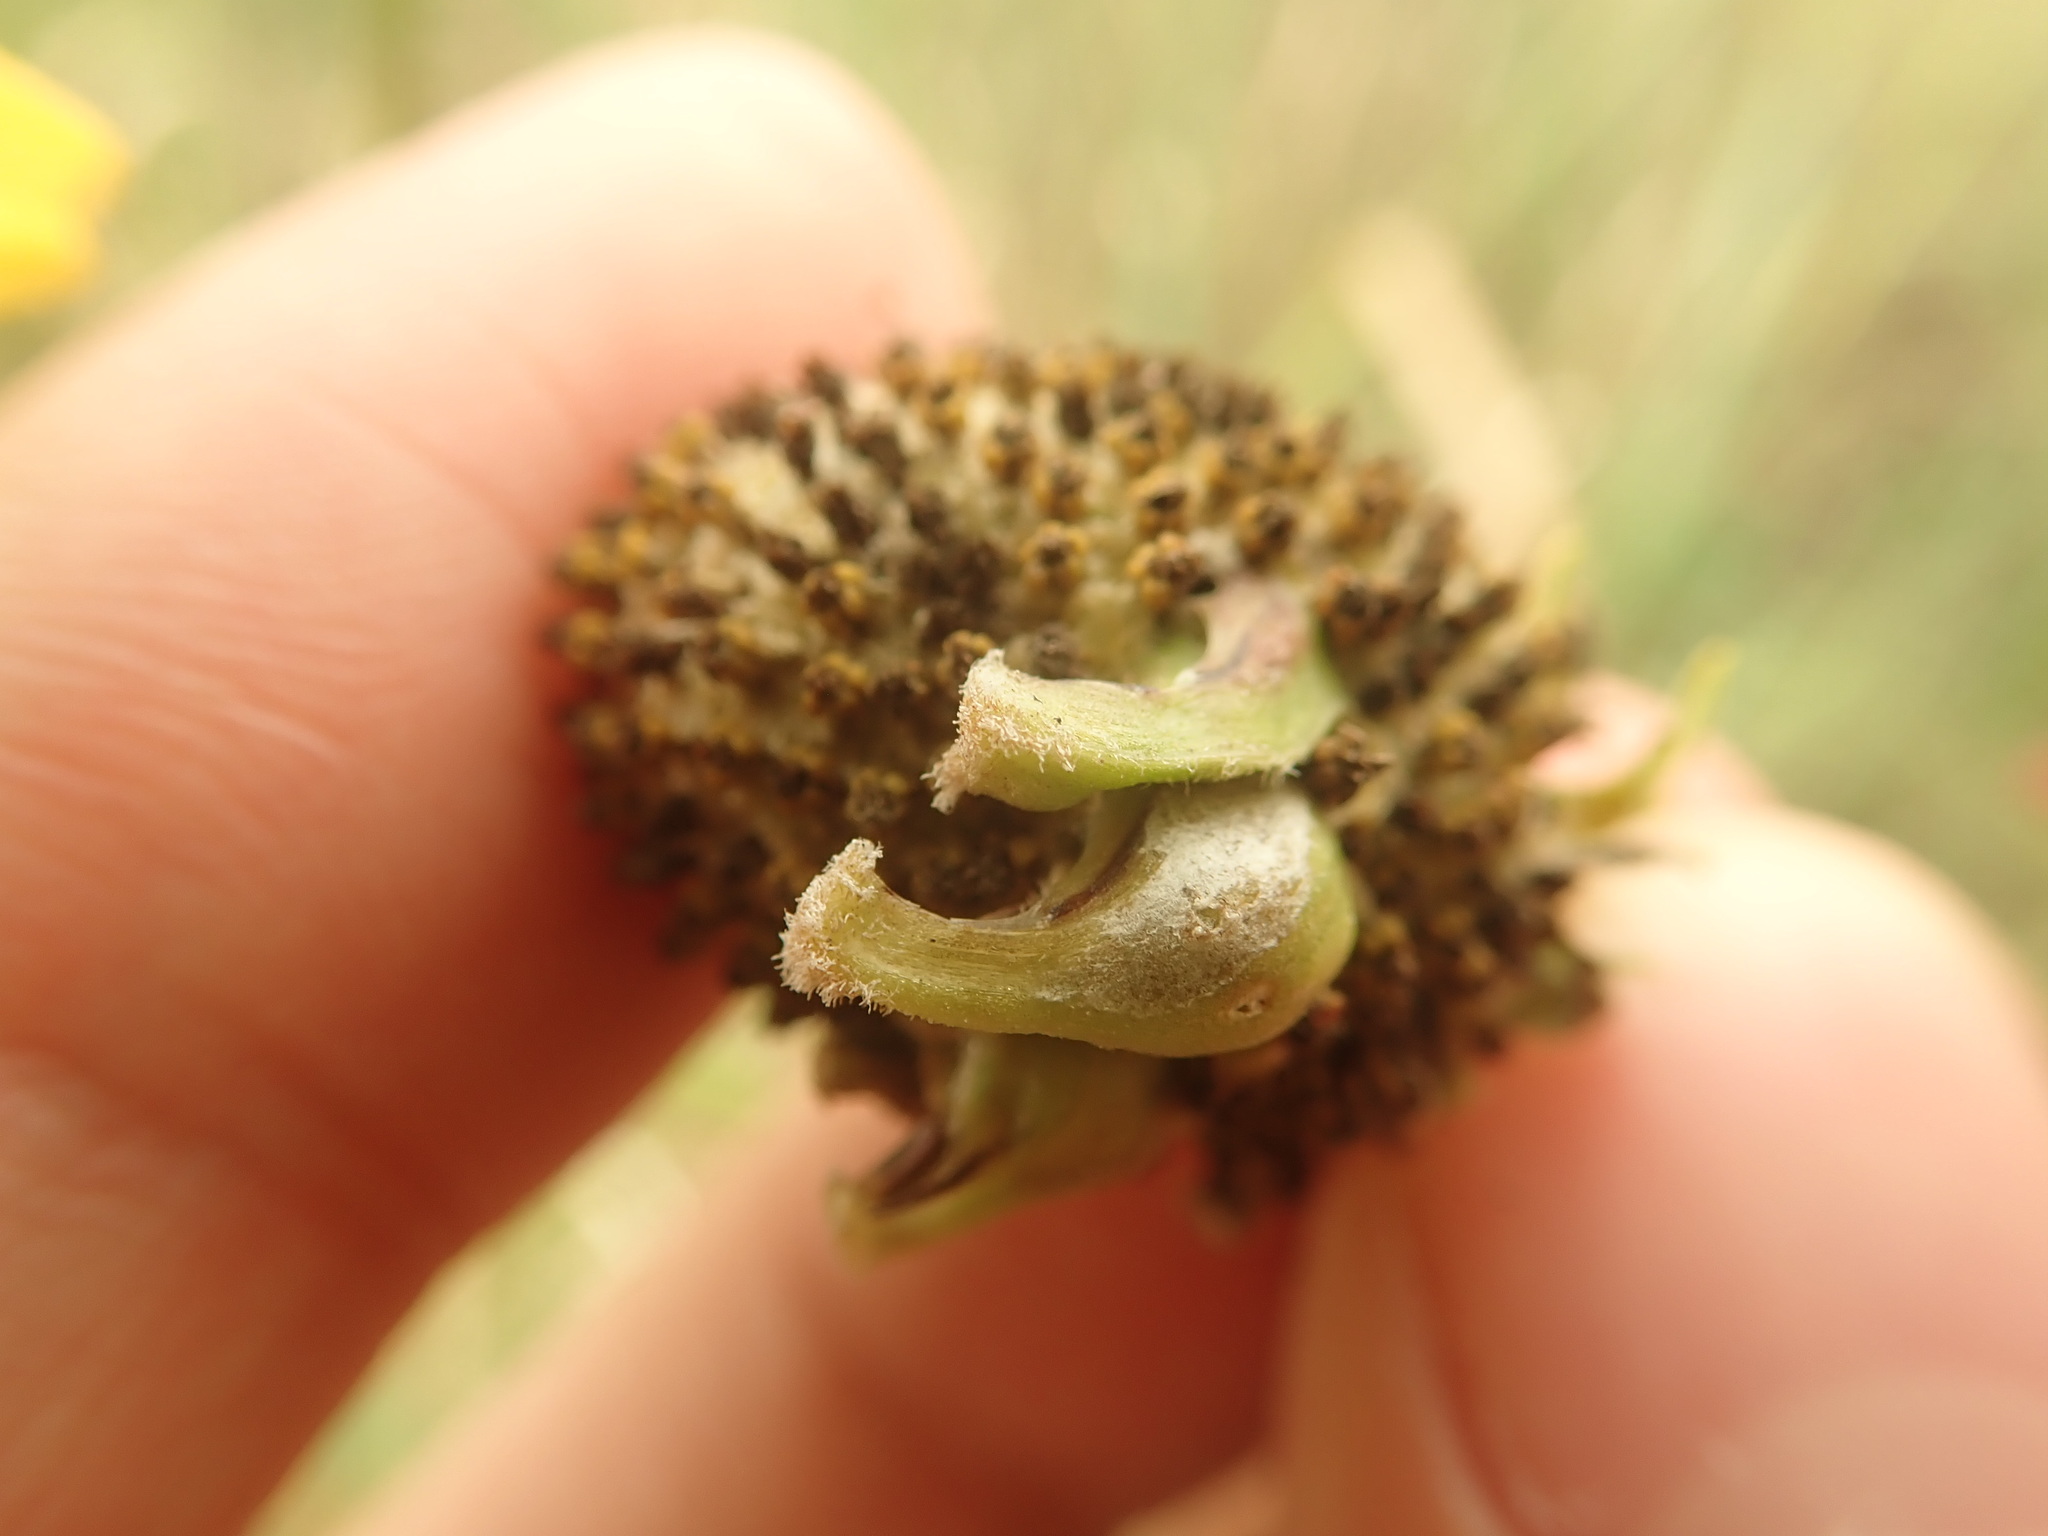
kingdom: Animalia
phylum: Arthropoda
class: Insecta
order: Diptera
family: Cecidomyiidae
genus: Asphondylia
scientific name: Asphondylia ratibidae
